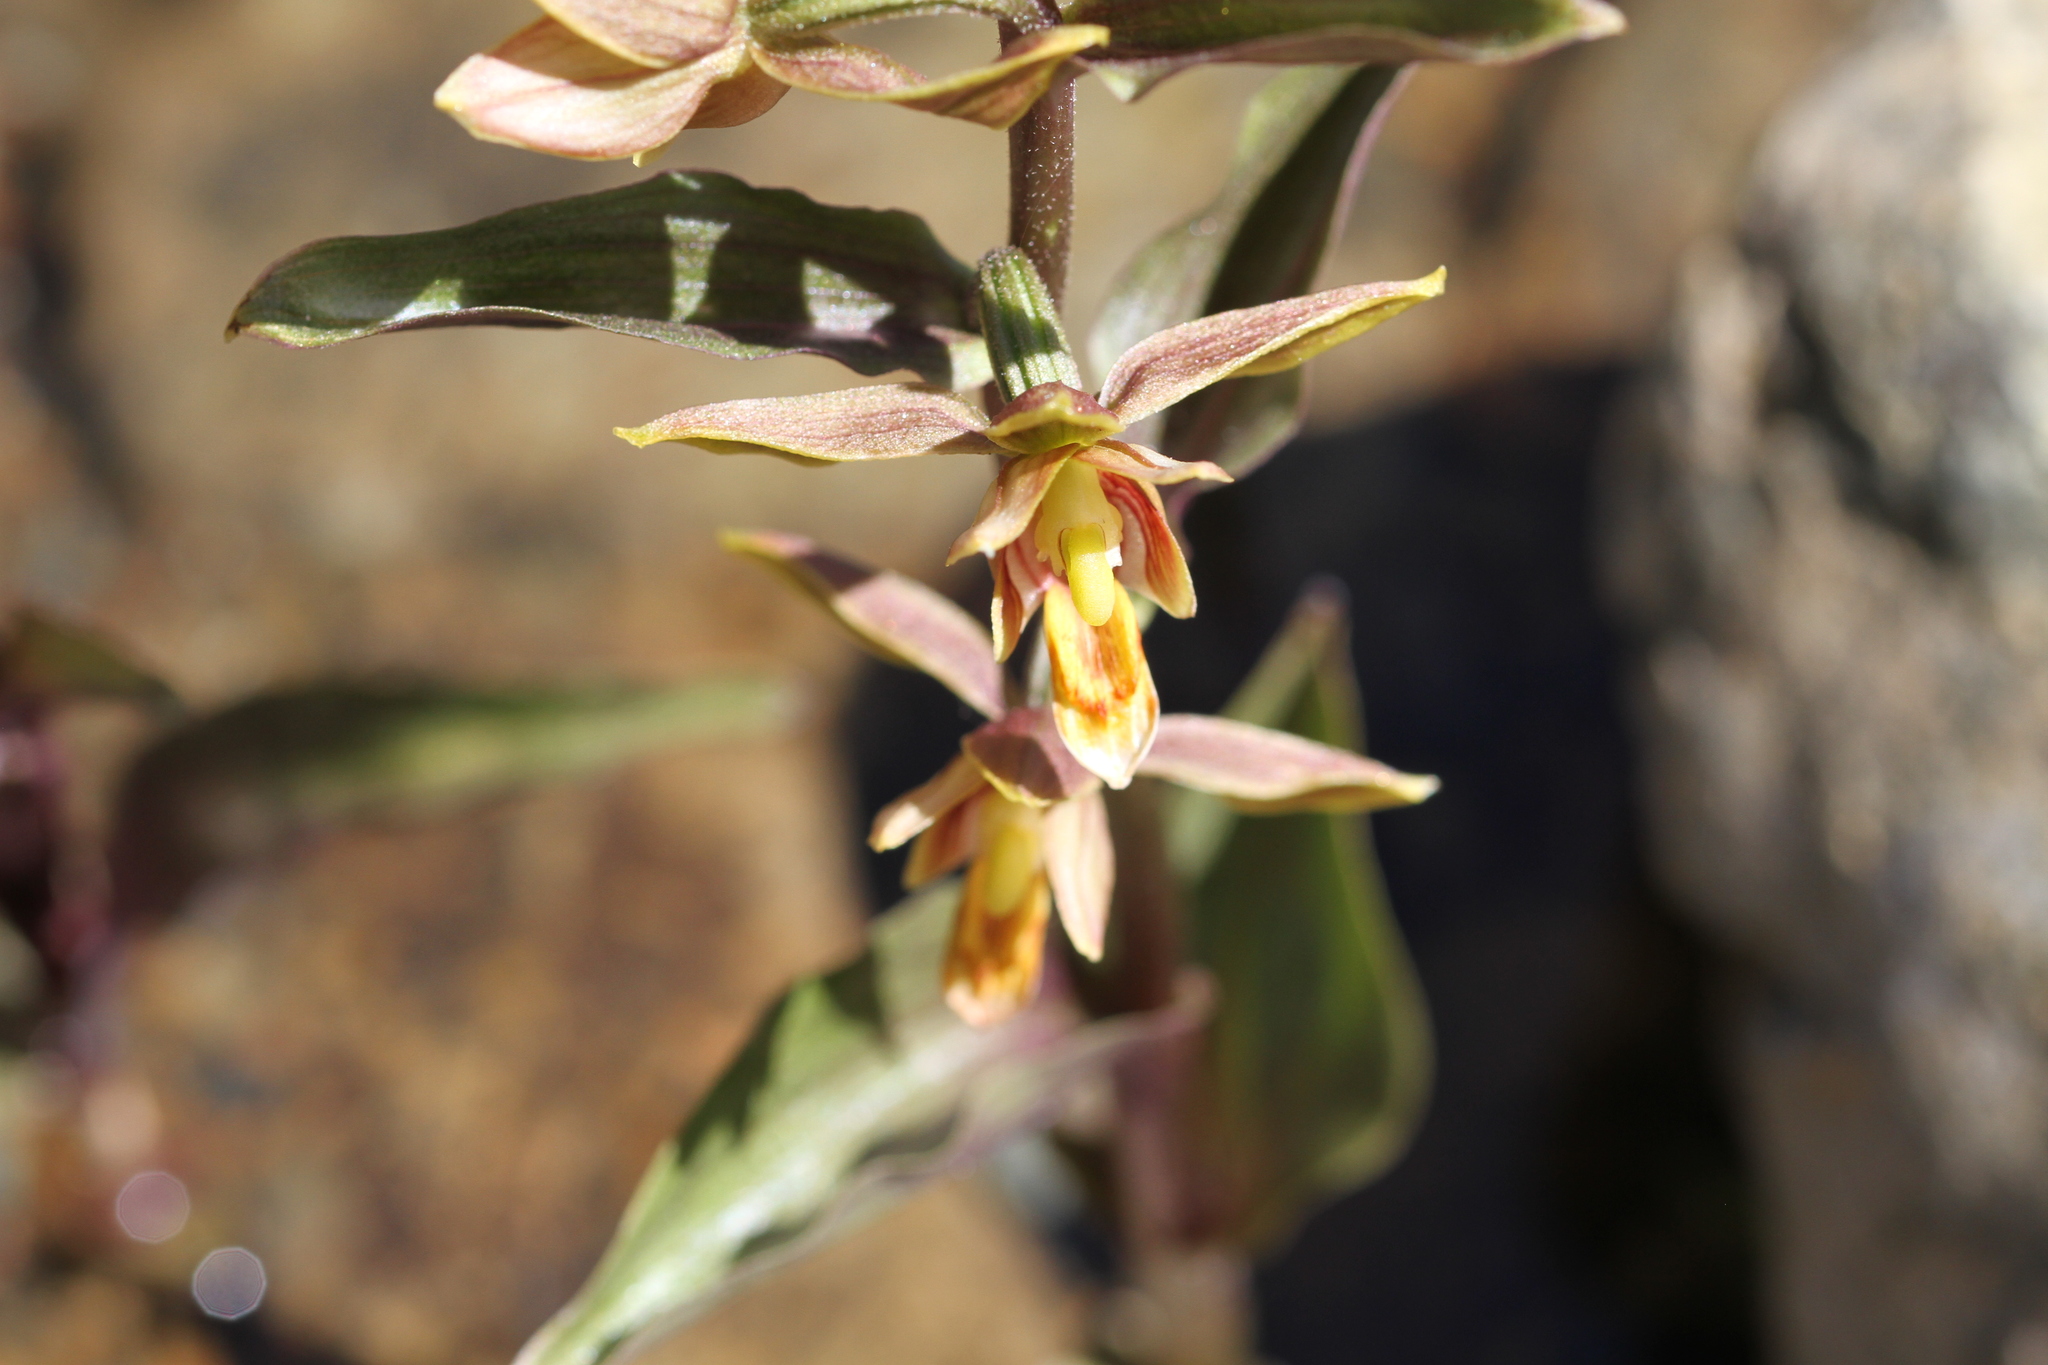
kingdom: Plantae
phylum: Tracheophyta
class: Liliopsida
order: Asparagales
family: Orchidaceae
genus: Epipactis
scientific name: Epipactis gigantea
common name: Chatterbox
